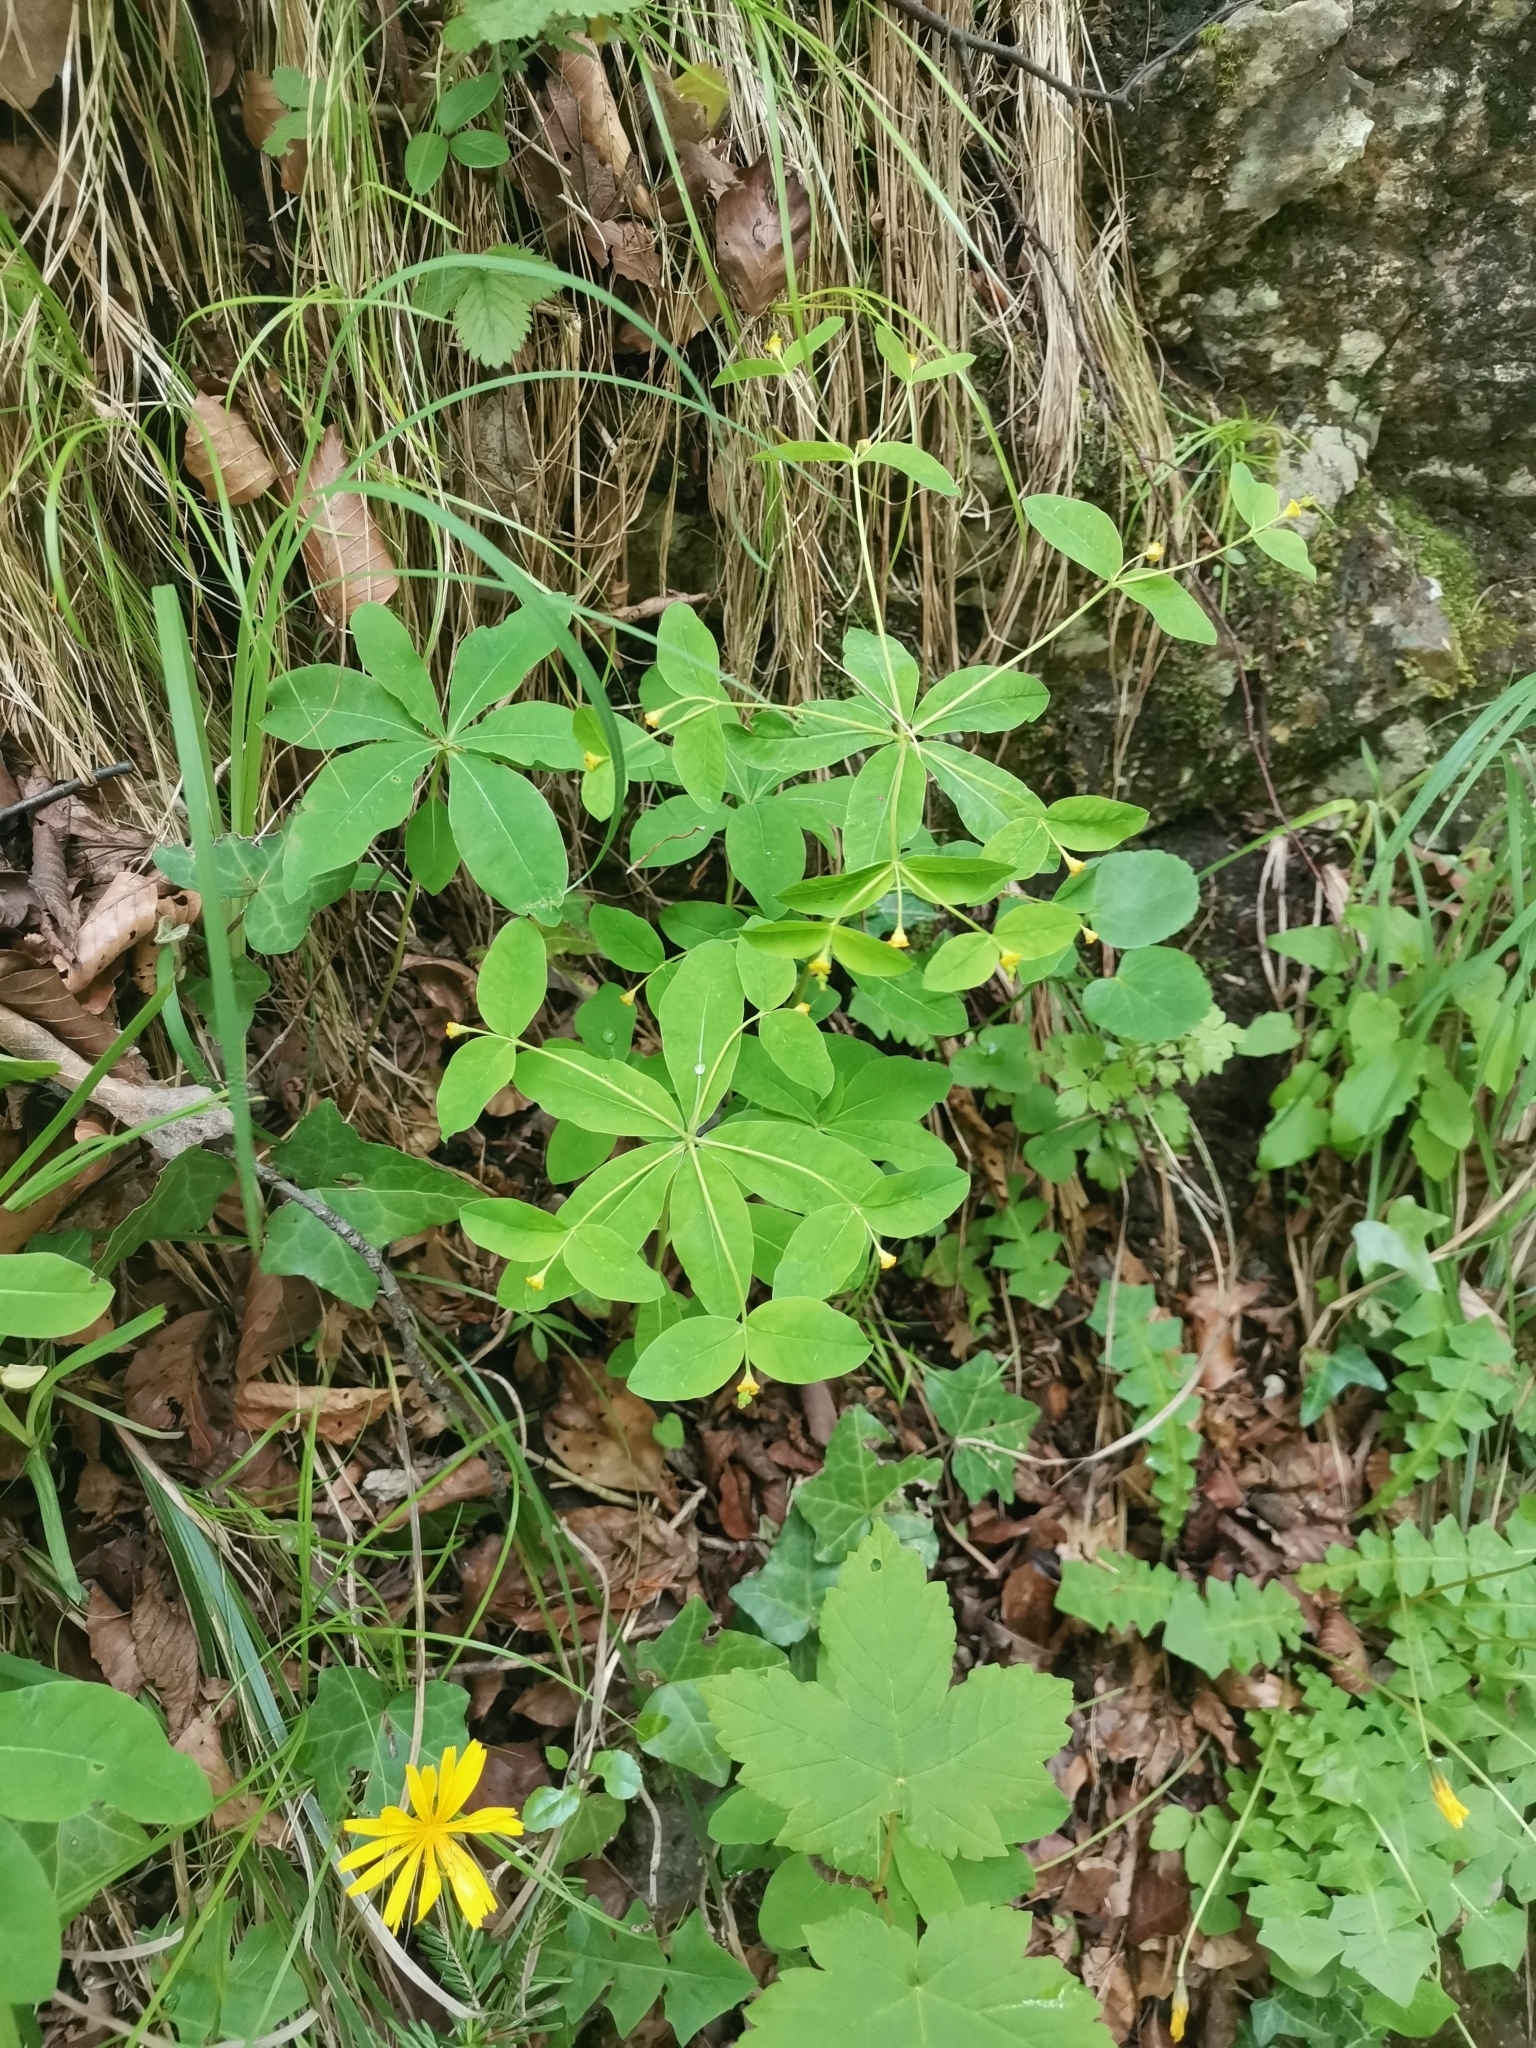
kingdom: Plantae
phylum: Tracheophyta
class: Magnoliopsida
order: Malpighiales
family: Euphorbiaceae
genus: Euphorbia
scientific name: Euphorbia carniolica
